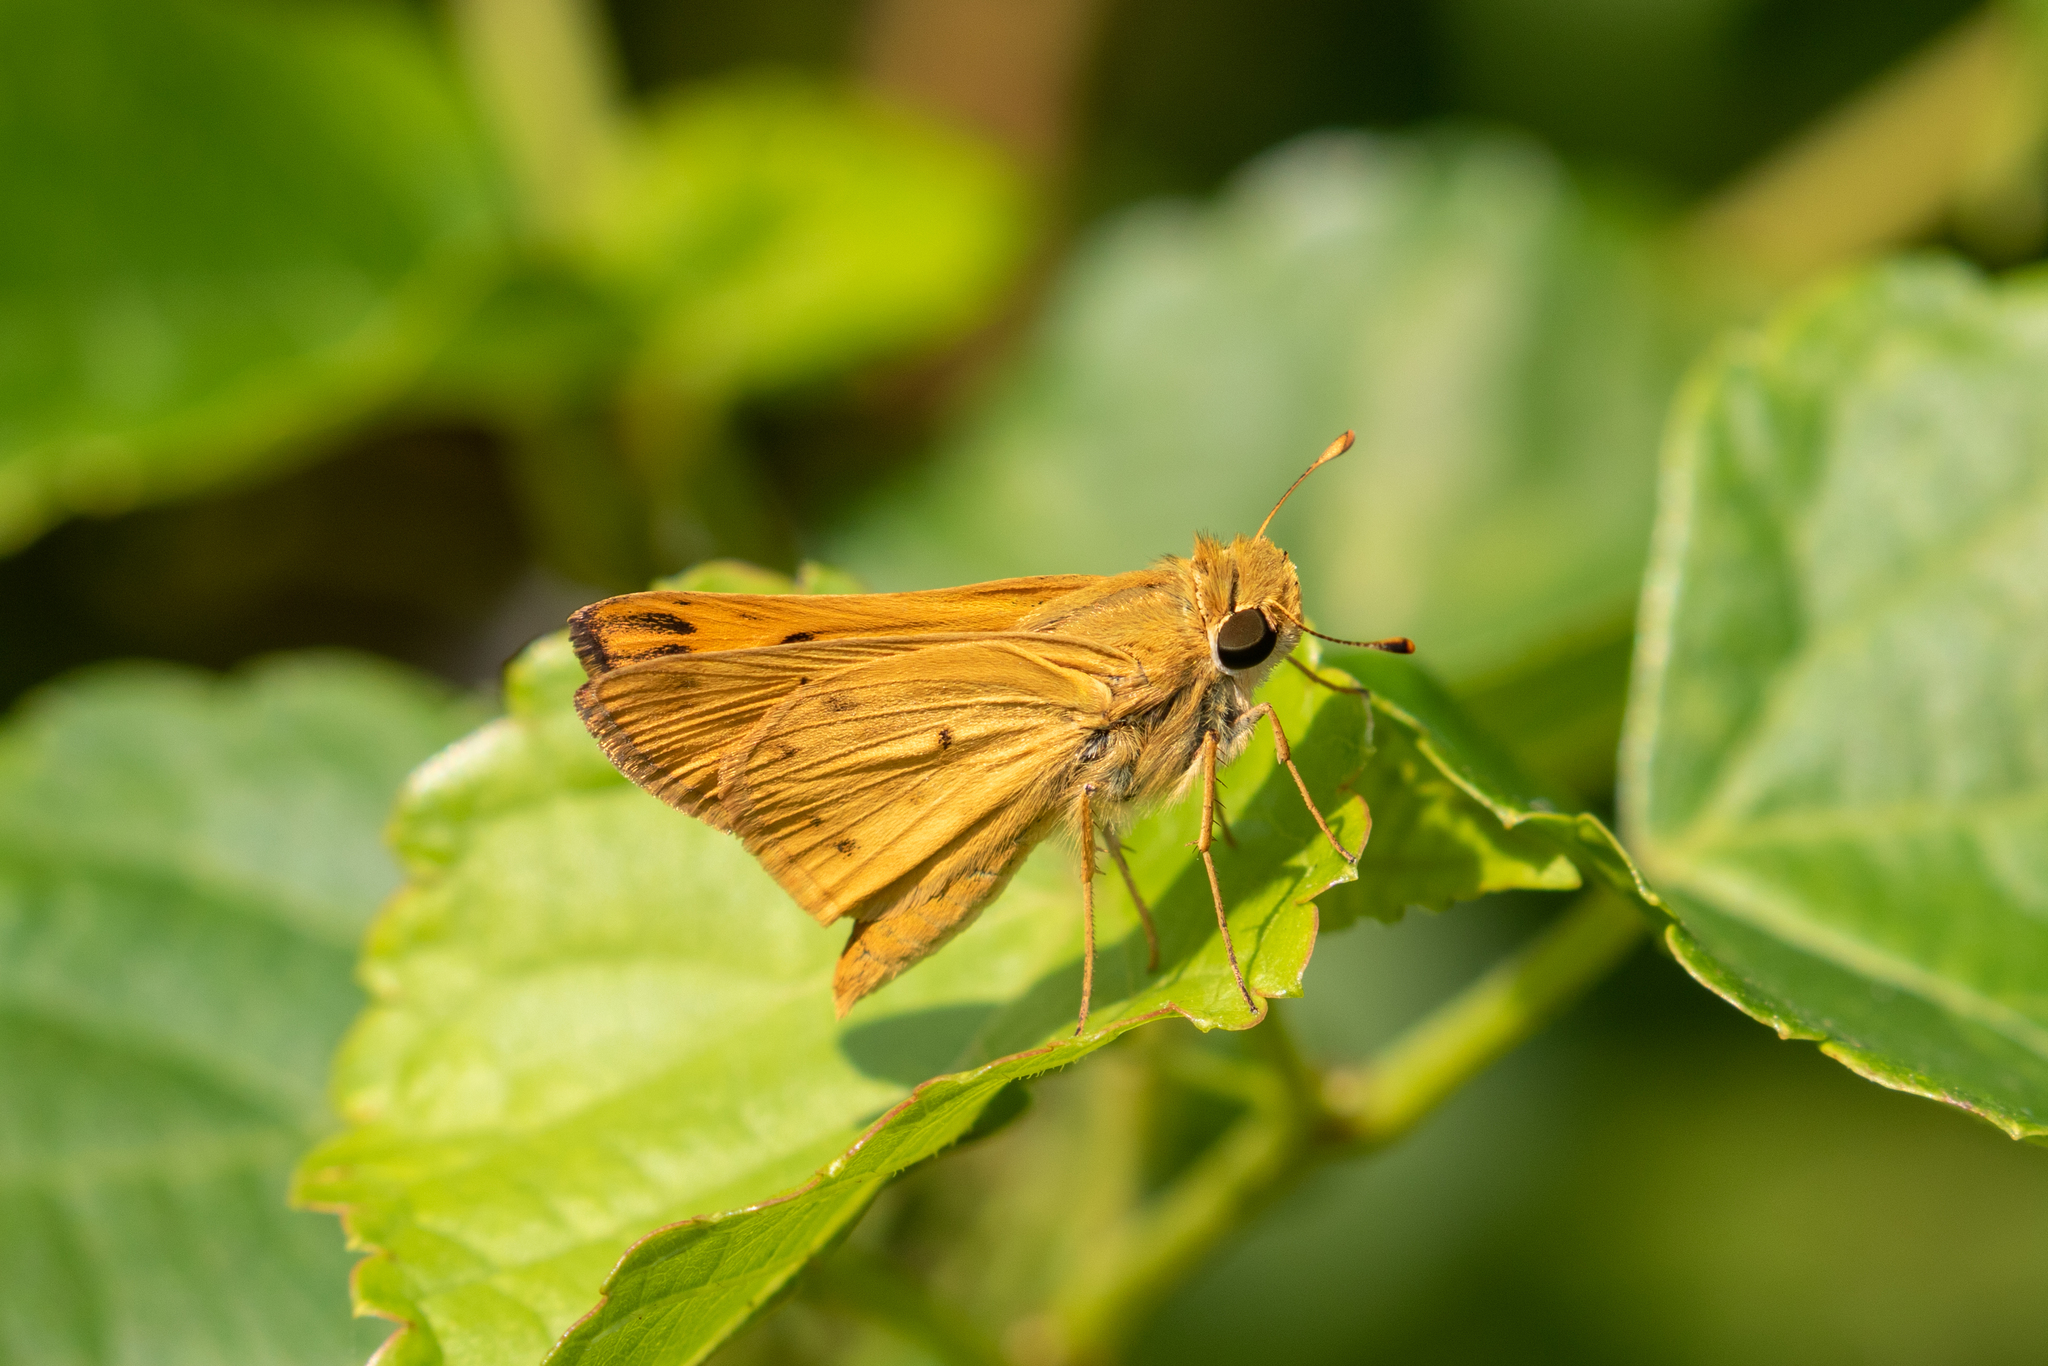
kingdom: Animalia
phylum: Arthropoda
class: Insecta
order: Lepidoptera
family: Hesperiidae
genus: Hylephila
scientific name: Hylephila phyleus
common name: Fiery skipper
